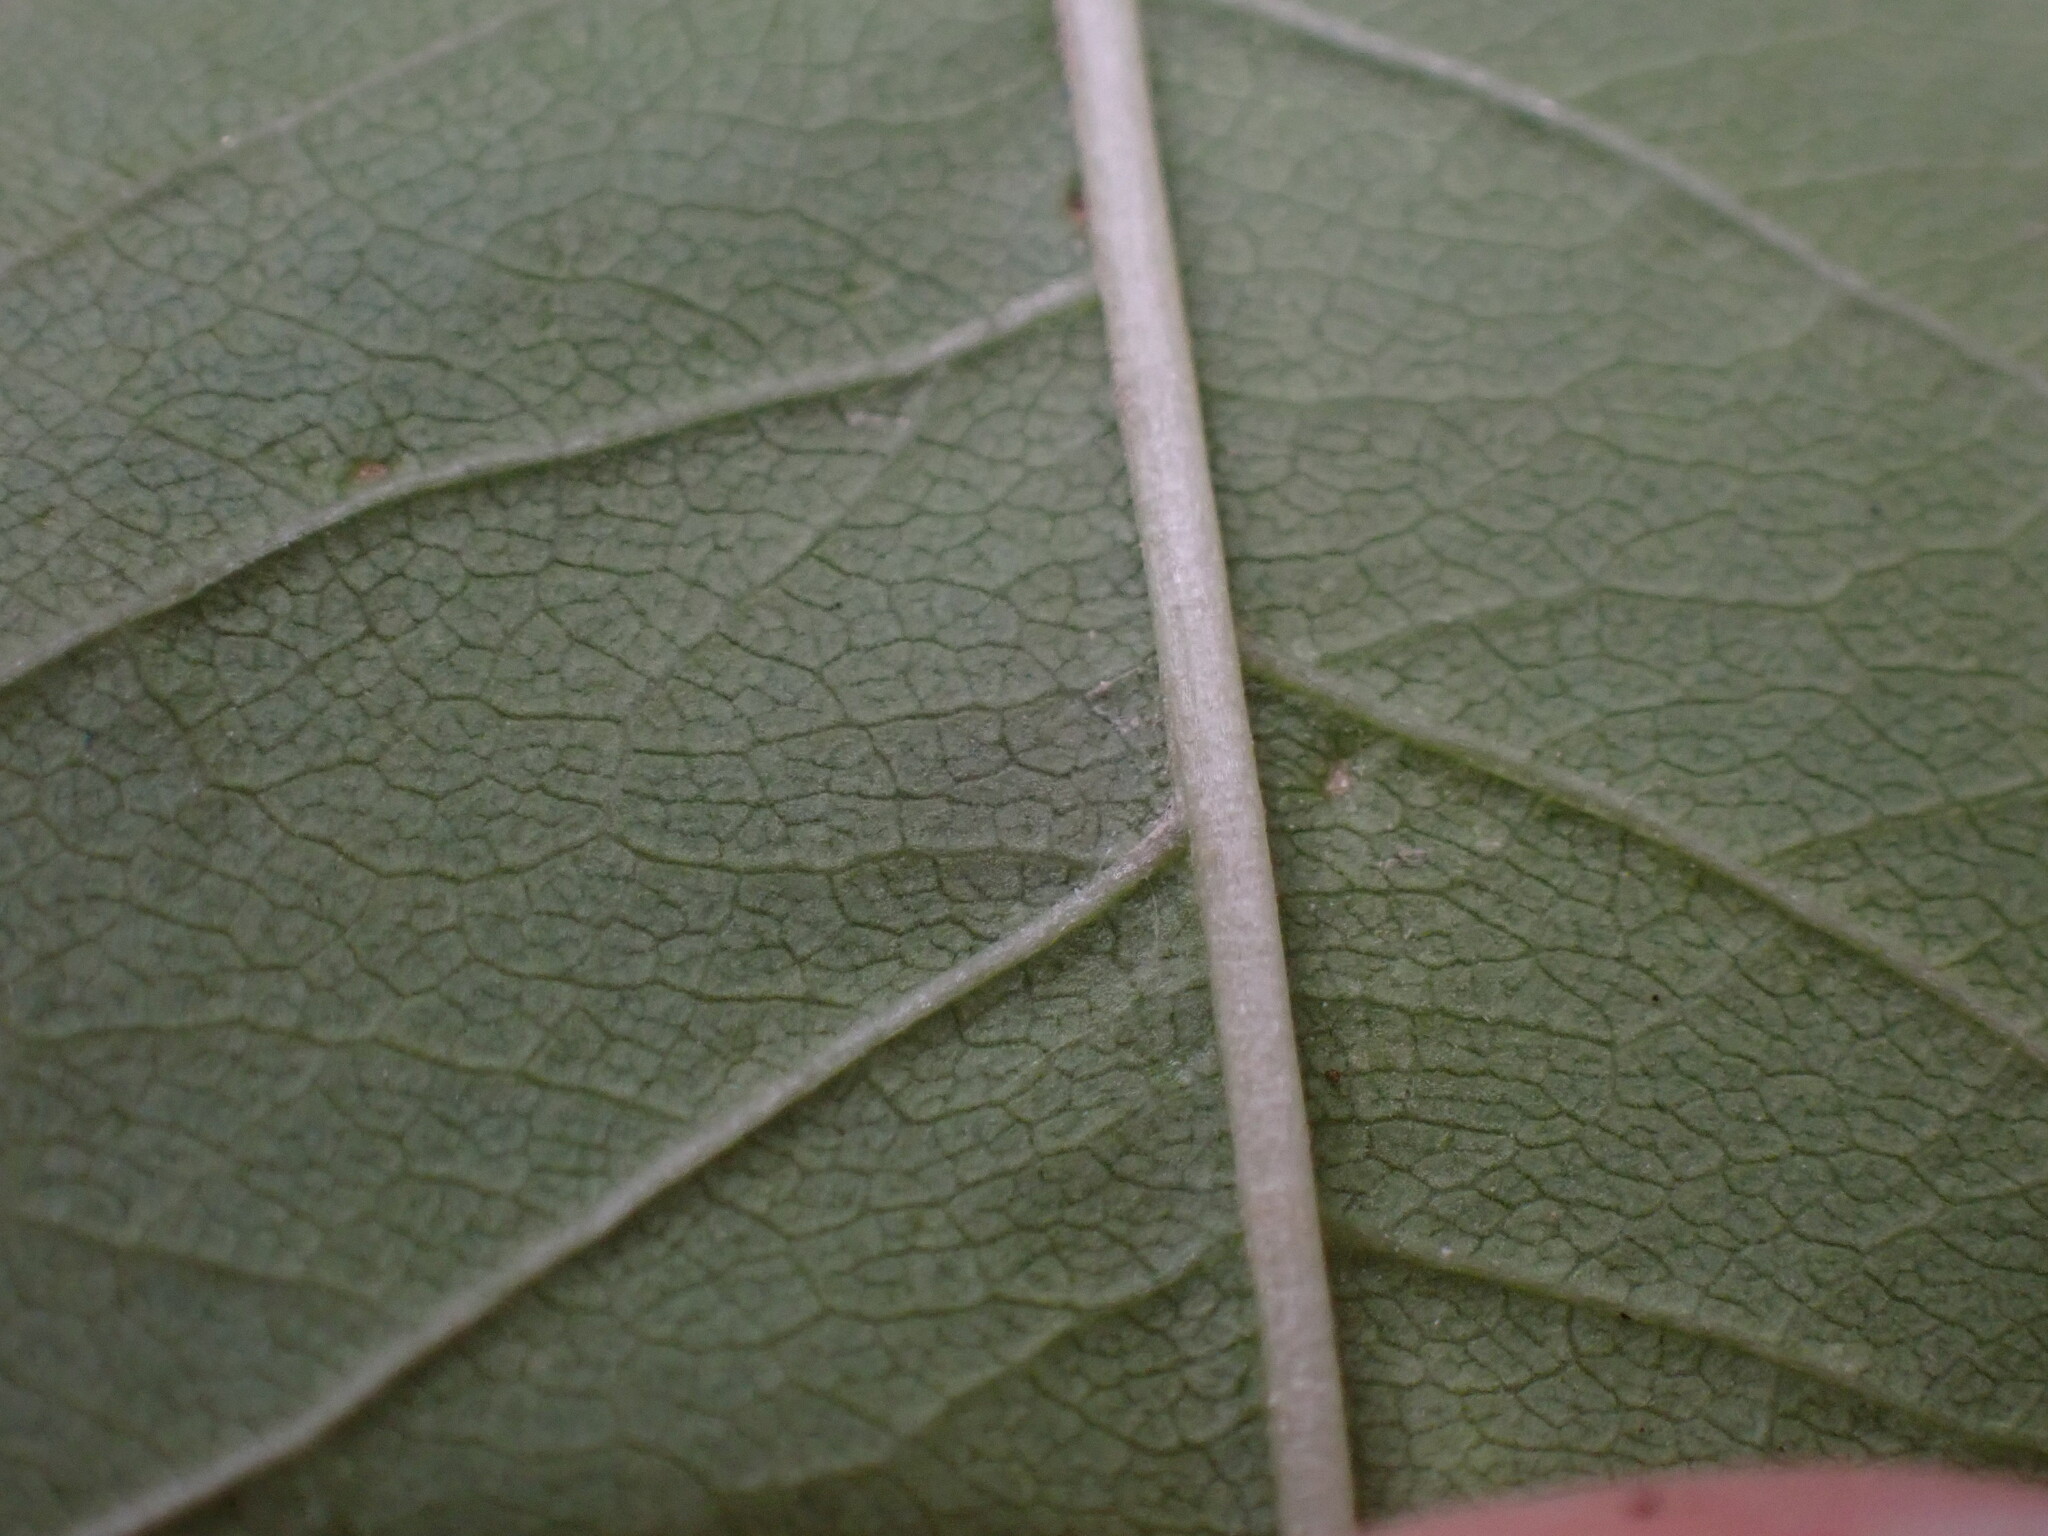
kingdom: Plantae
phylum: Tracheophyta
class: Magnoliopsida
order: Rosales
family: Rosaceae
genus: Prunus
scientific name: Prunus pensylvanica
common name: Pin cherry
